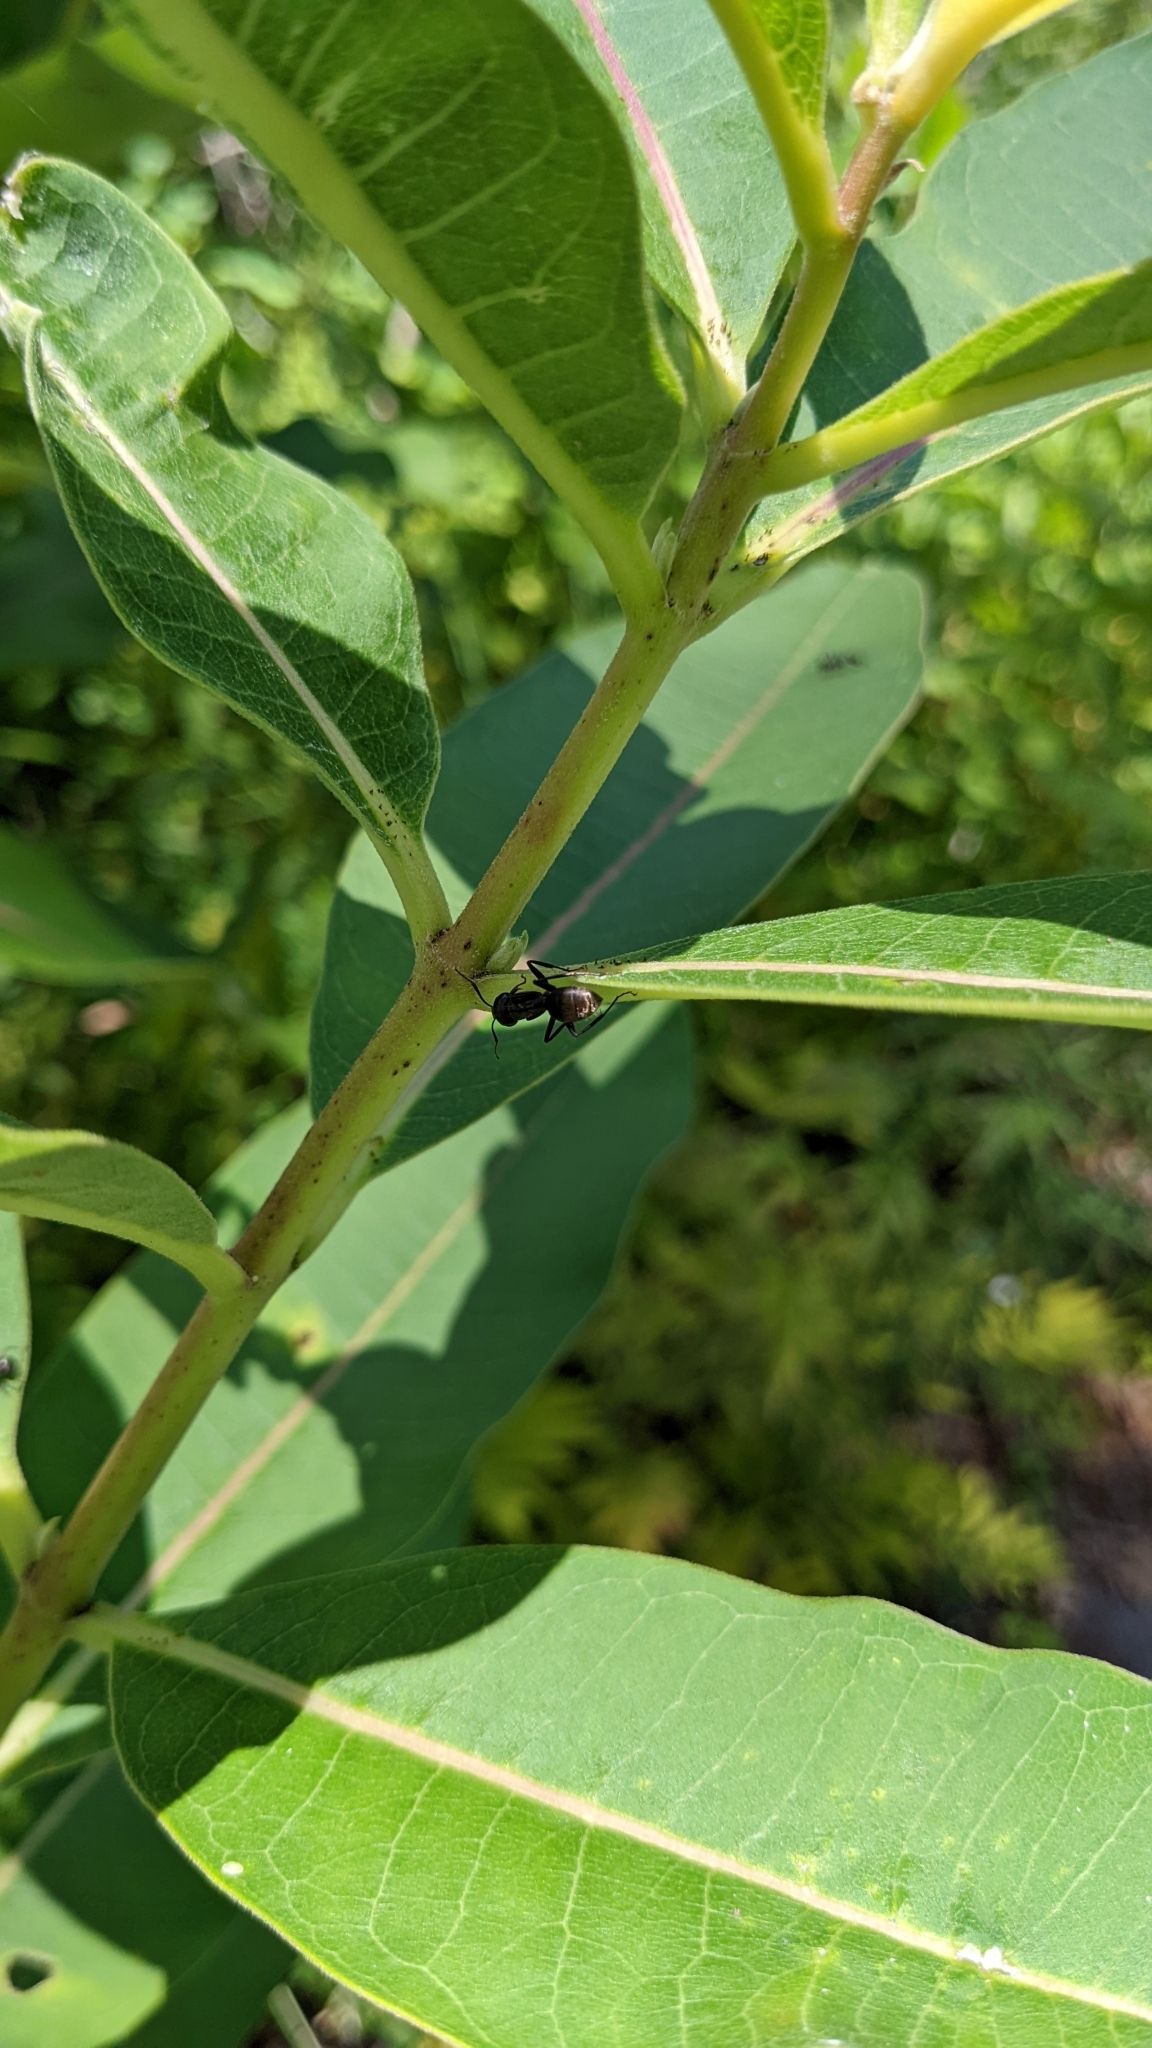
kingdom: Animalia
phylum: Arthropoda
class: Insecta
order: Hymenoptera
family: Formicidae
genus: Camponotus
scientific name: Camponotus pennsylvanicus
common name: Black carpenter ant
